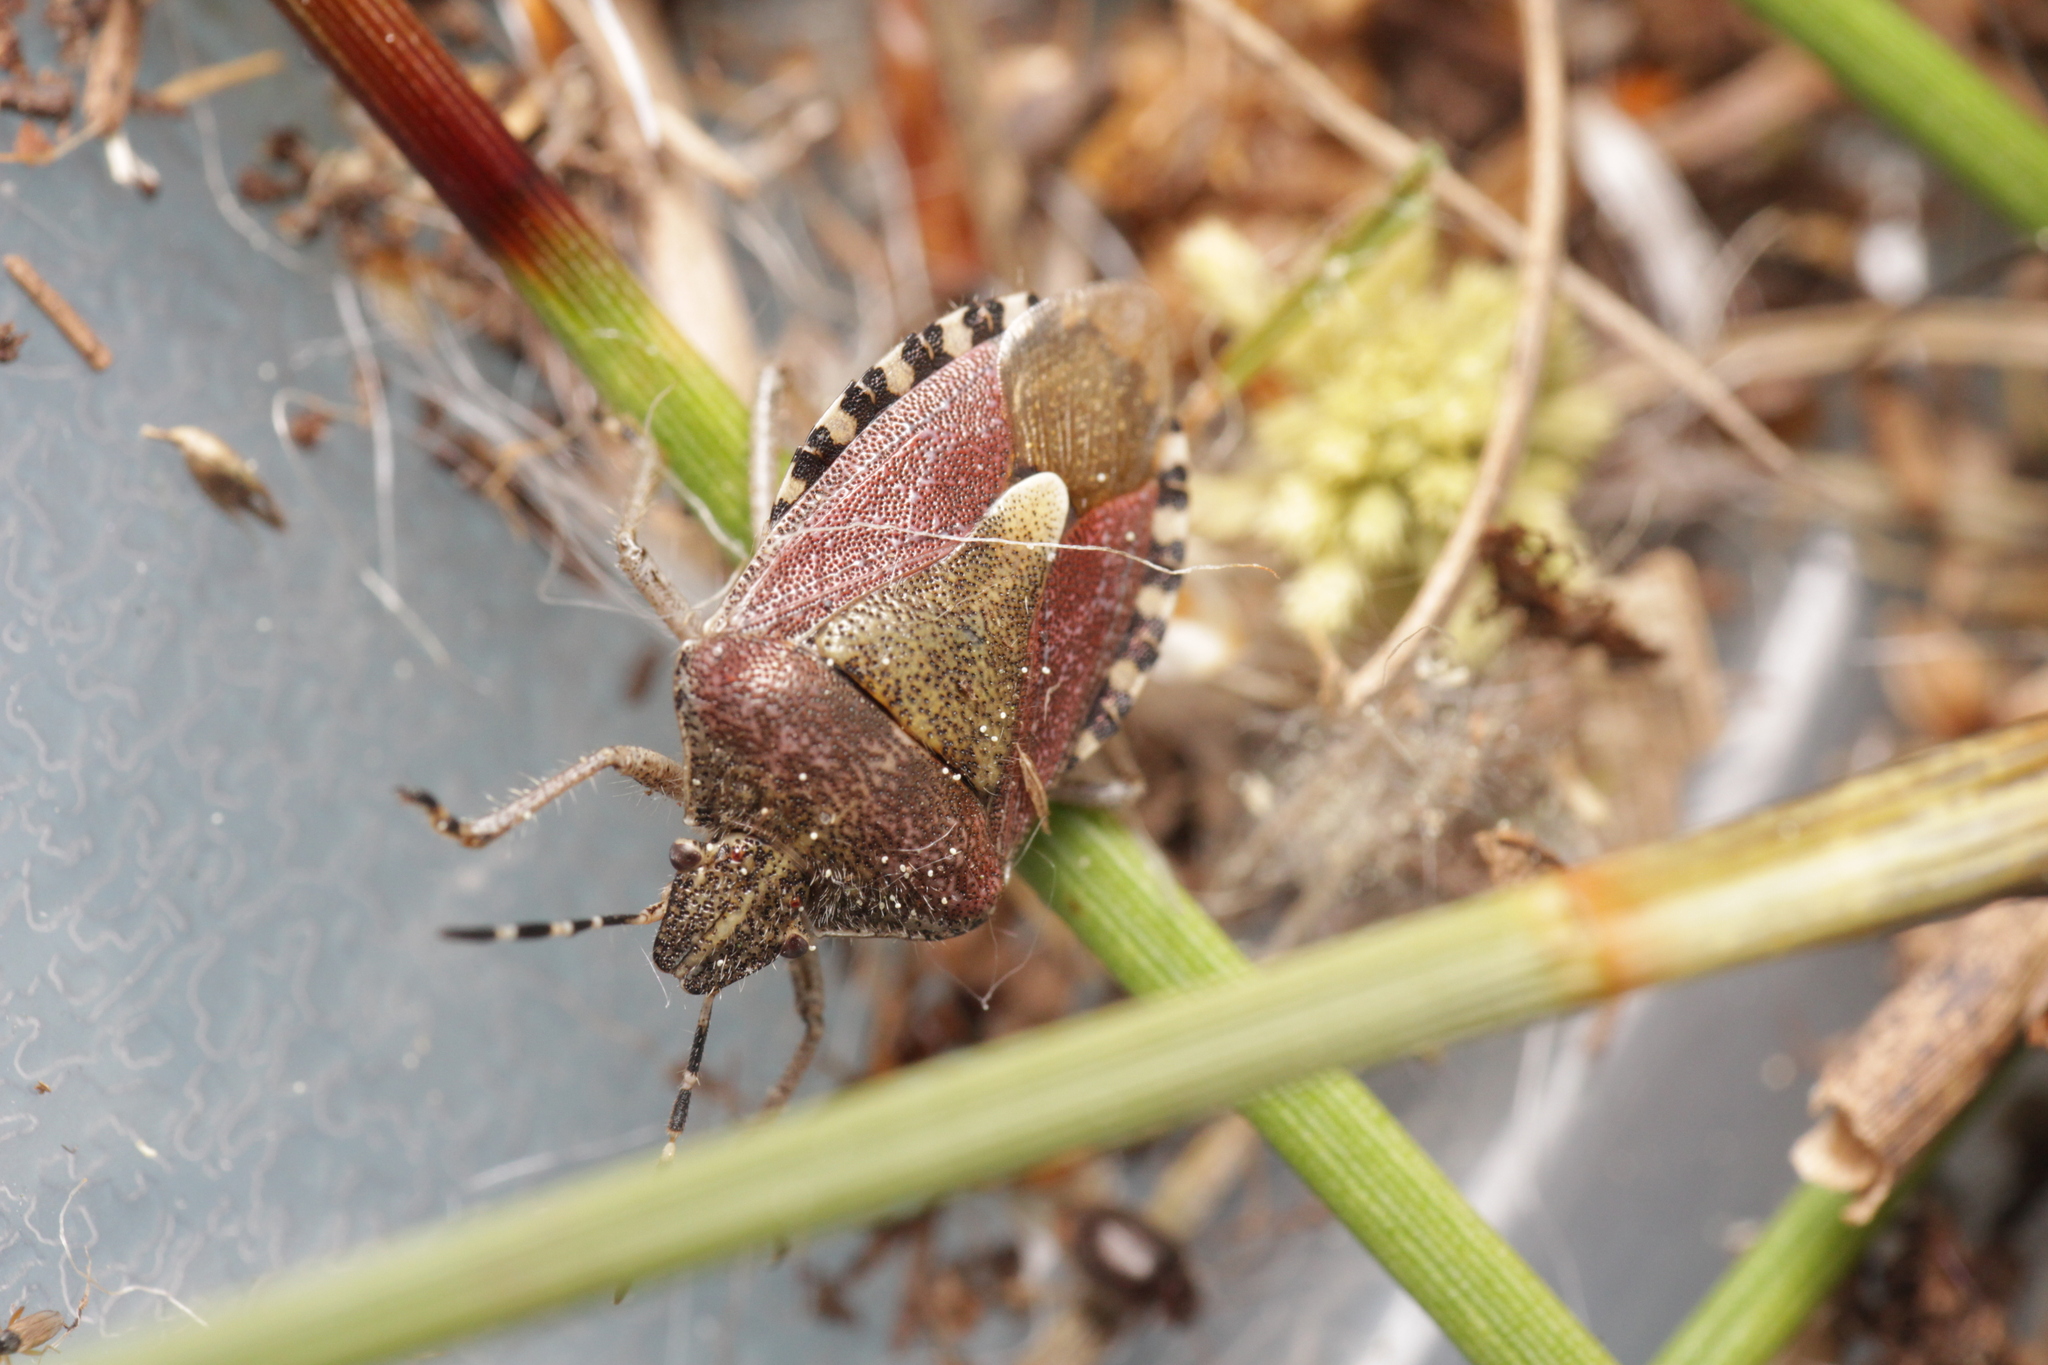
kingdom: Animalia
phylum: Arthropoda
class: Insecta
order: Hemiptera
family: Pentatomidae
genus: Dolycoris
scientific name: Dolycoris baccarum
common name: Sloe bug
